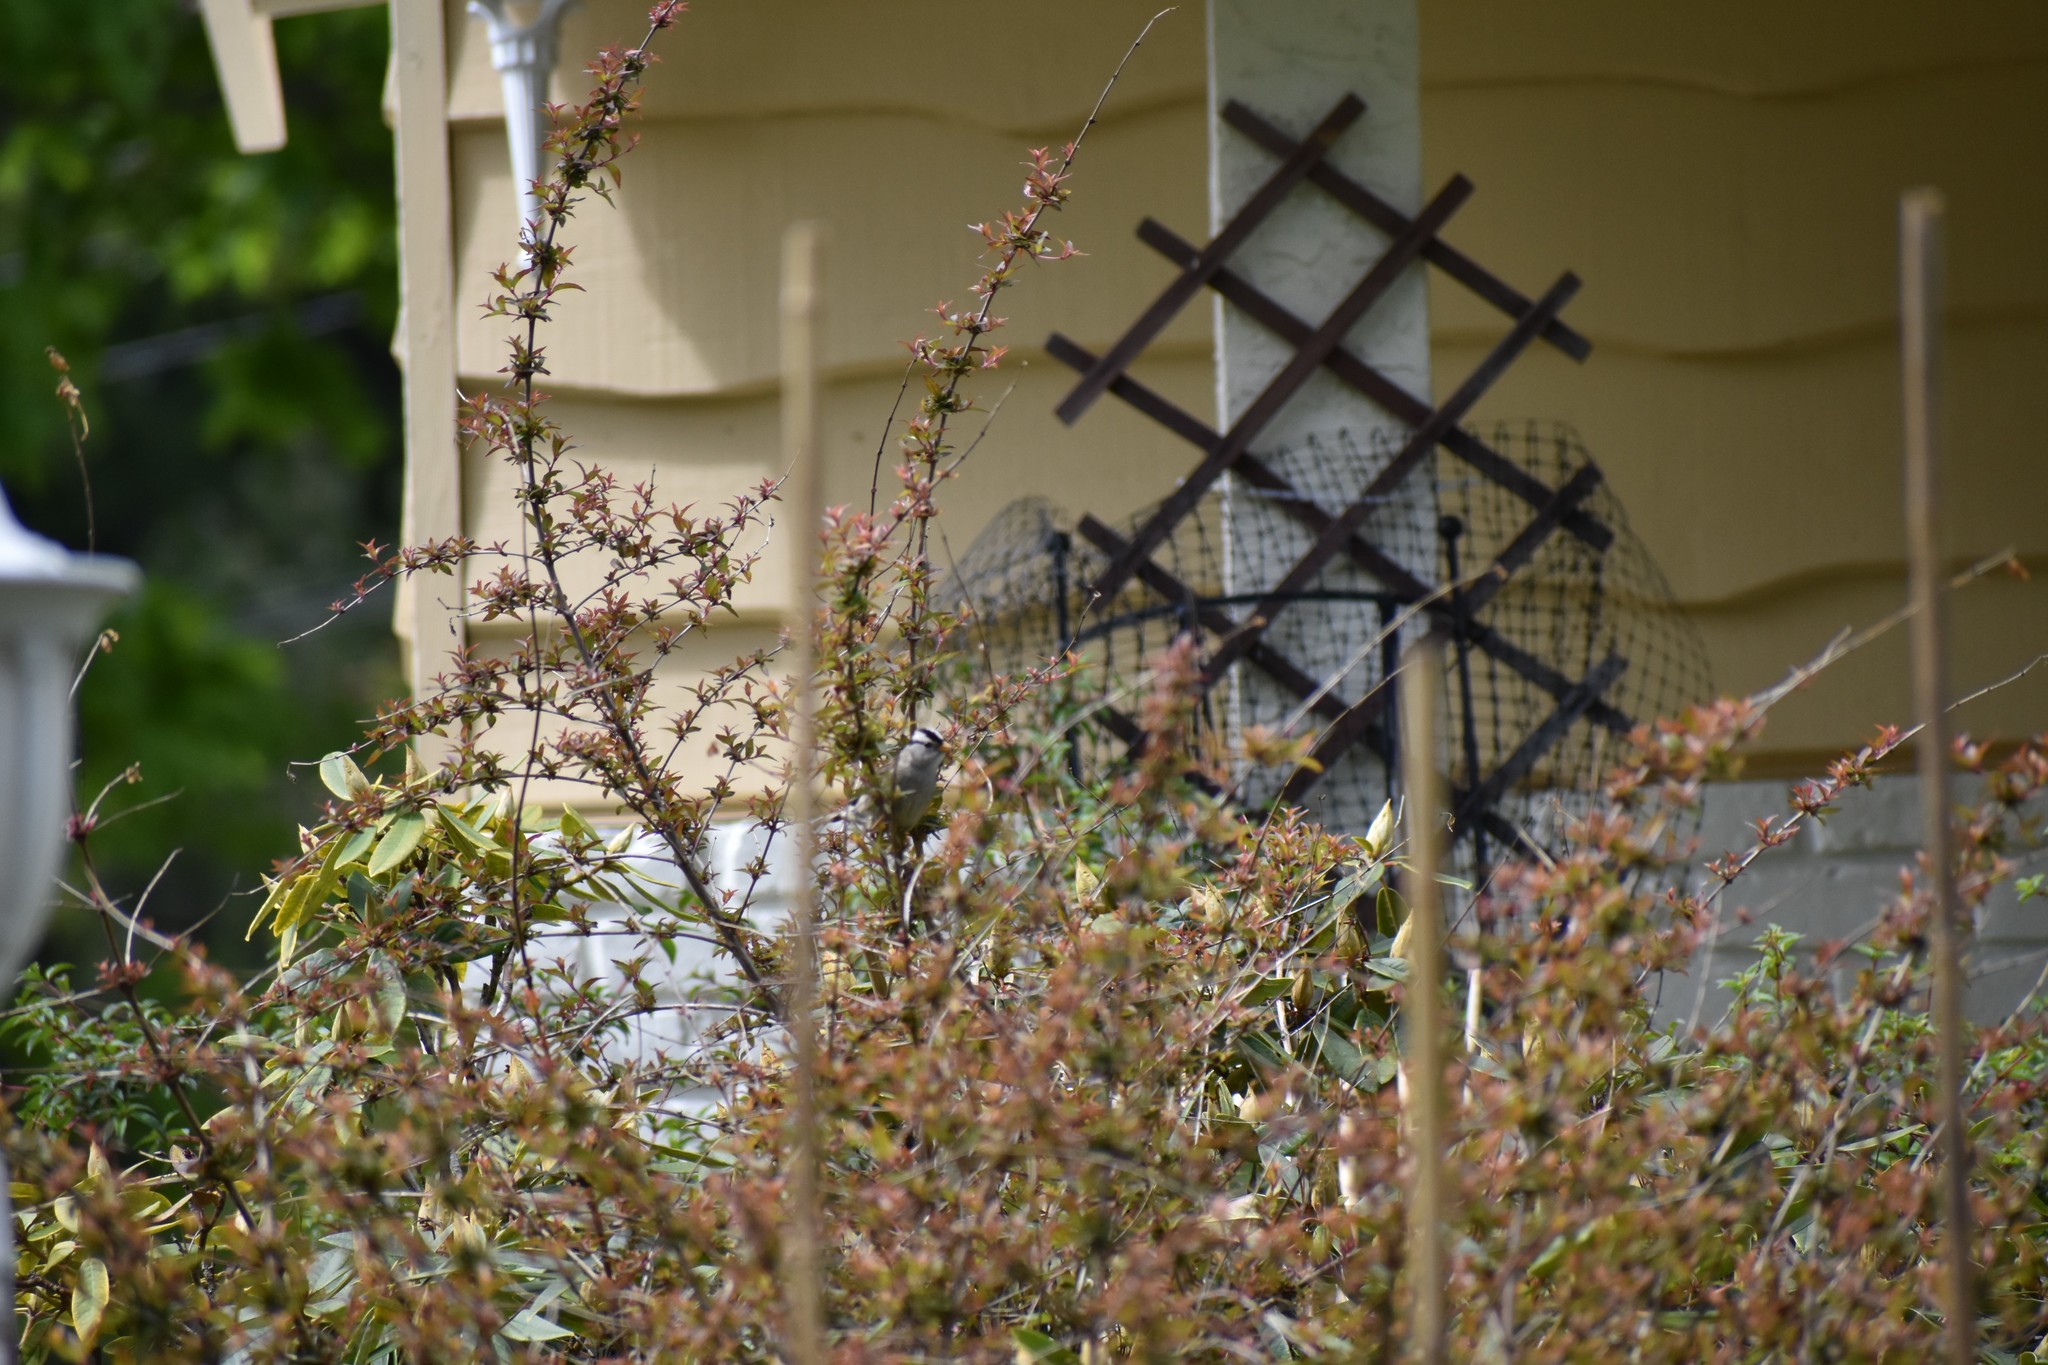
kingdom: Animalia
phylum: Chordata
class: Aves
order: Passeriformes
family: Passerellidae
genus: Zonotrichia
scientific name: Zonotrichia leucophrys
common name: White-crowned sparrow
